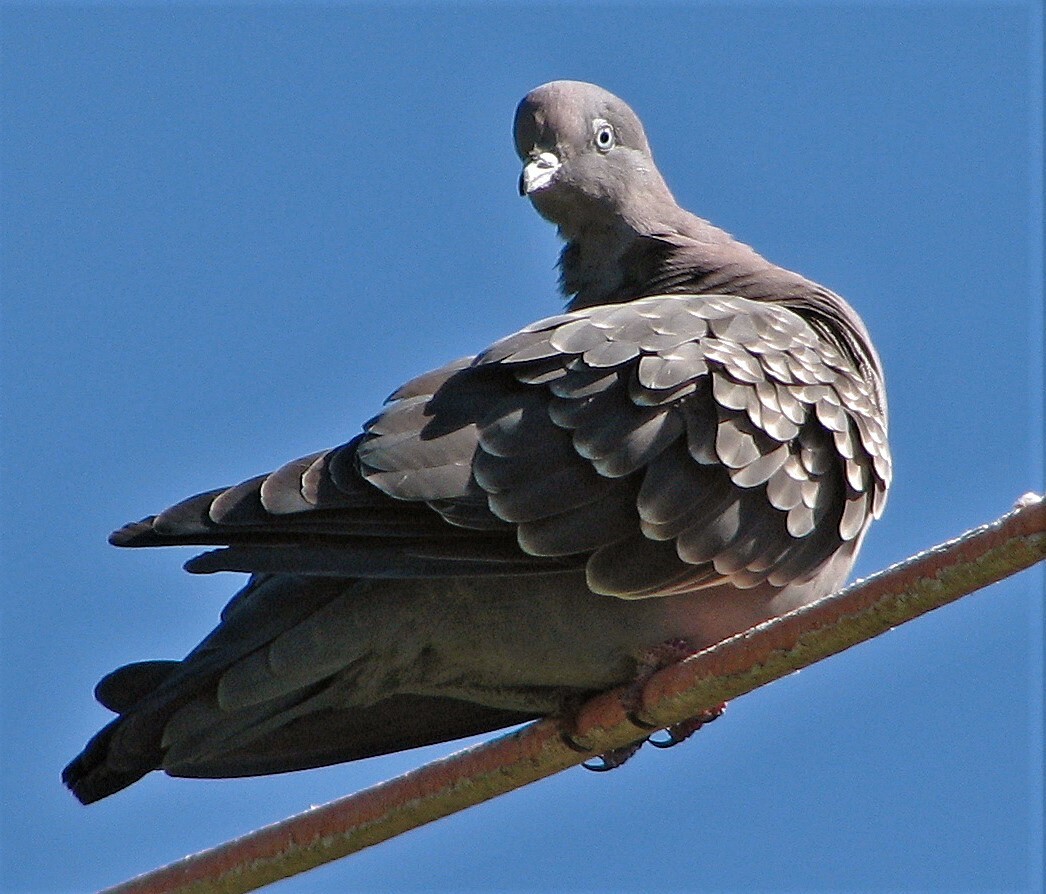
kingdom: Animalia
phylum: Chordata
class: Aves
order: Columbiformes
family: Columbidae
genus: Patagioenas
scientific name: Patagioenas maculosa
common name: Spot-winged pigeon
